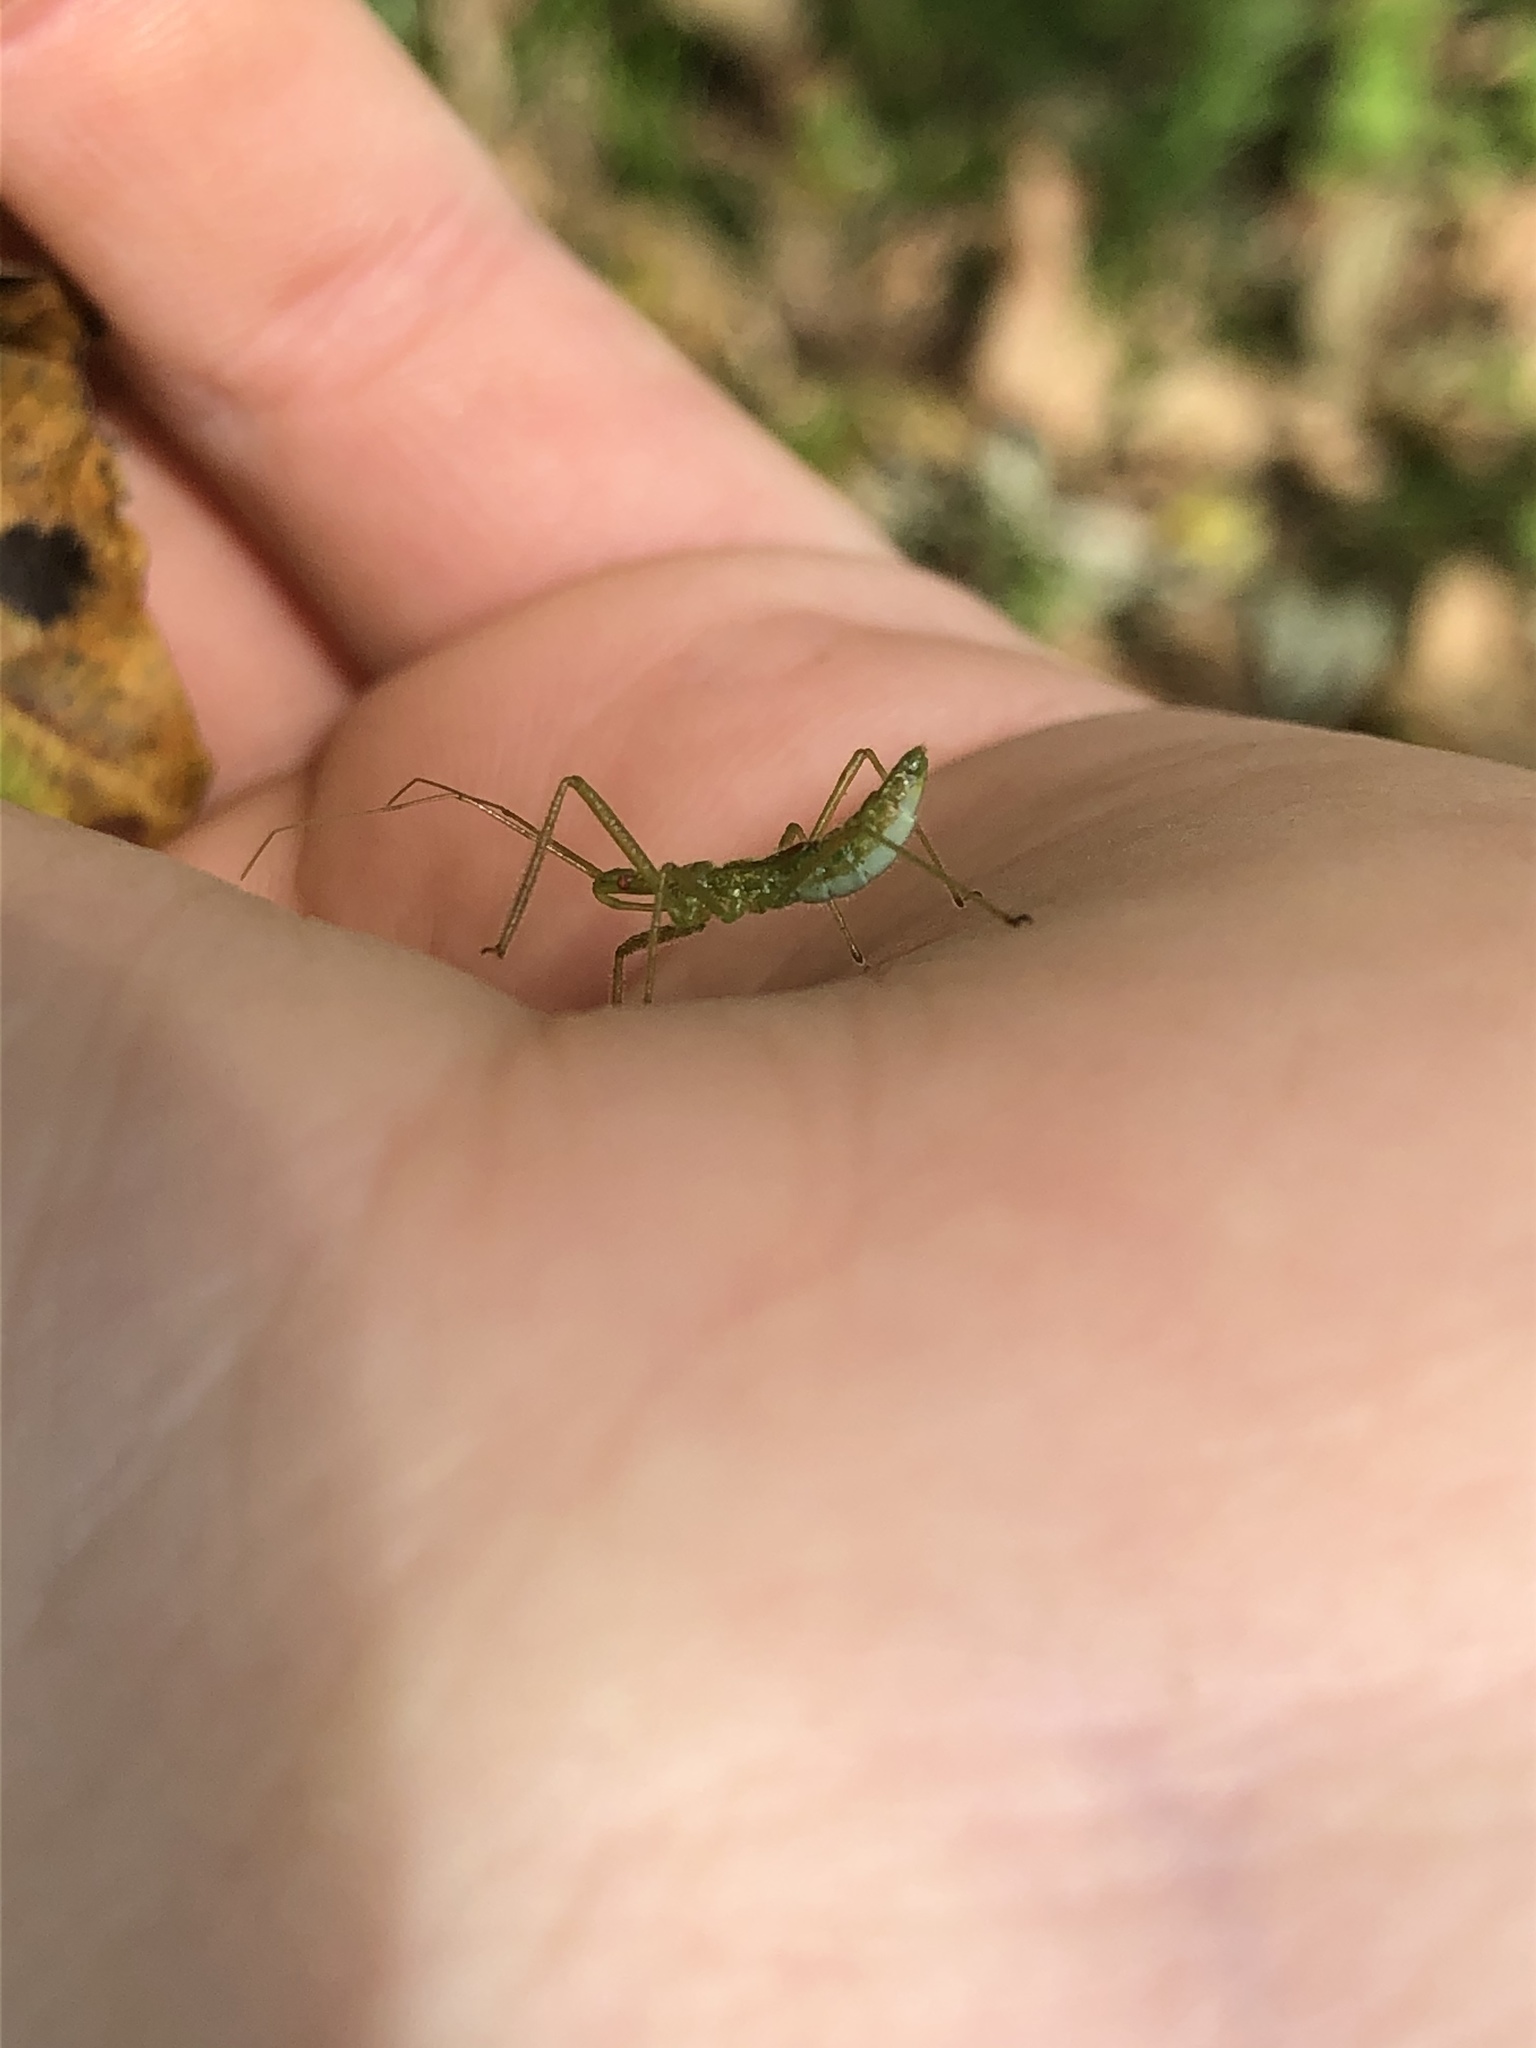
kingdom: Animalia
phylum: Arthropoda
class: Insecta
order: Hemiptera
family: Reduviidae
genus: Zelus
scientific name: Zelus luridus
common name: Pale green assassin bug
